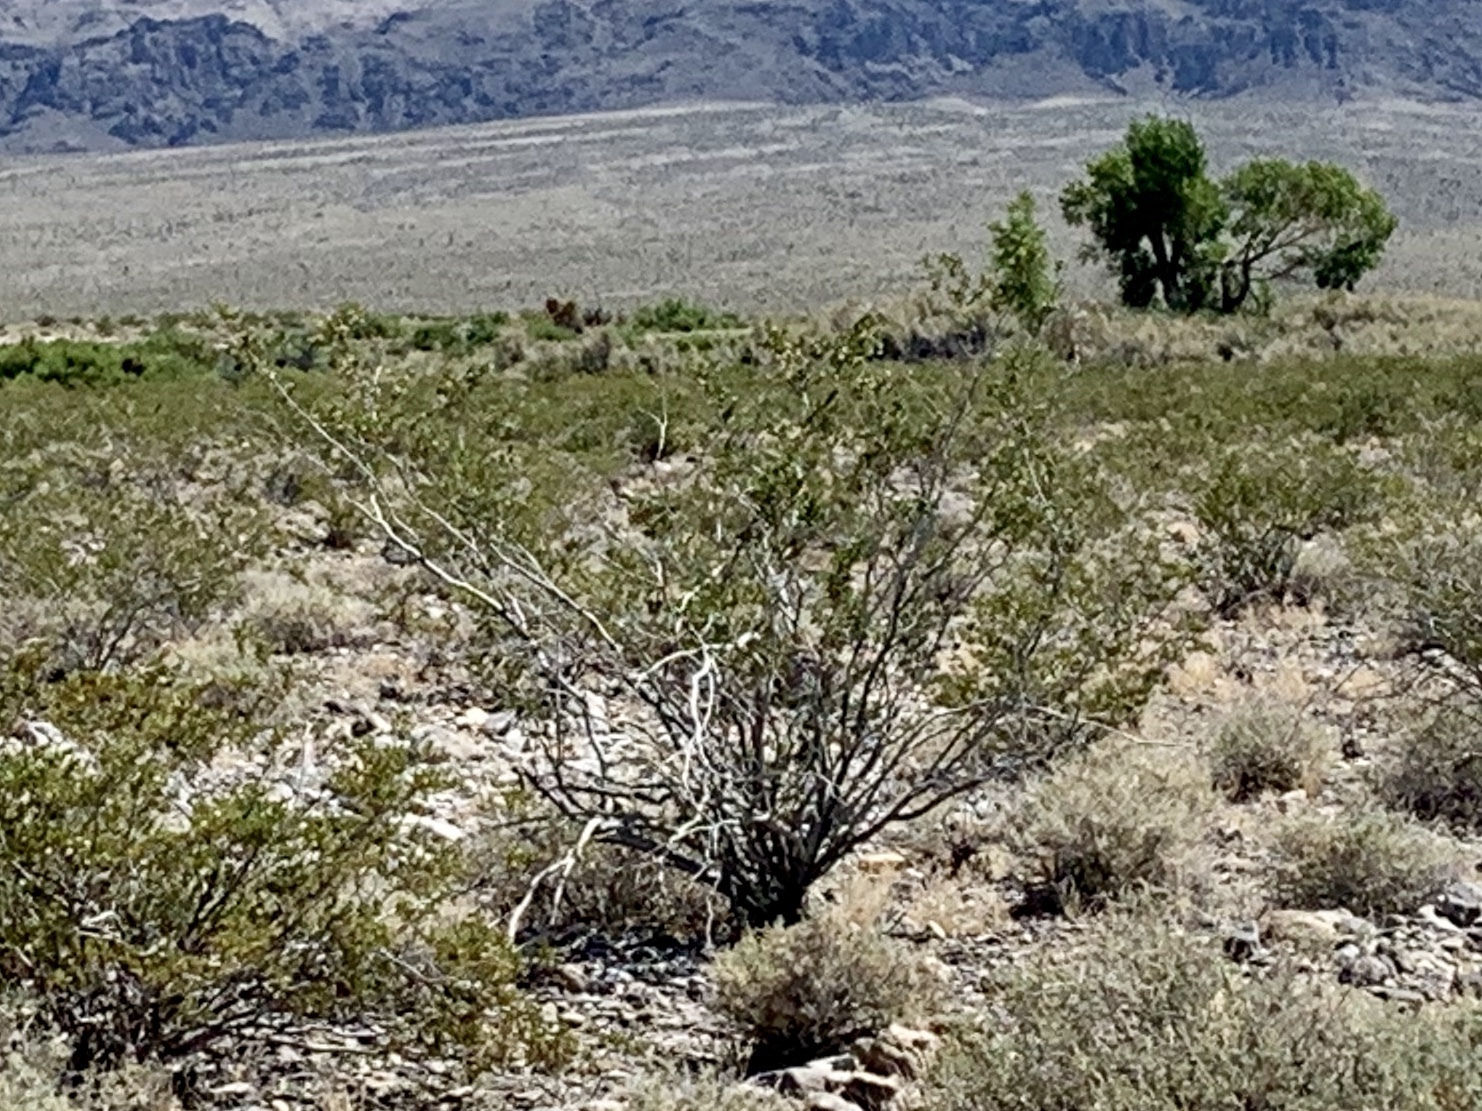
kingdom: Plantae
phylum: Tracheophyta
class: Magnoliopsida
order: Zygophyllales
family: Zygophyllaceae
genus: Larrea
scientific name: Larrea tridentata
